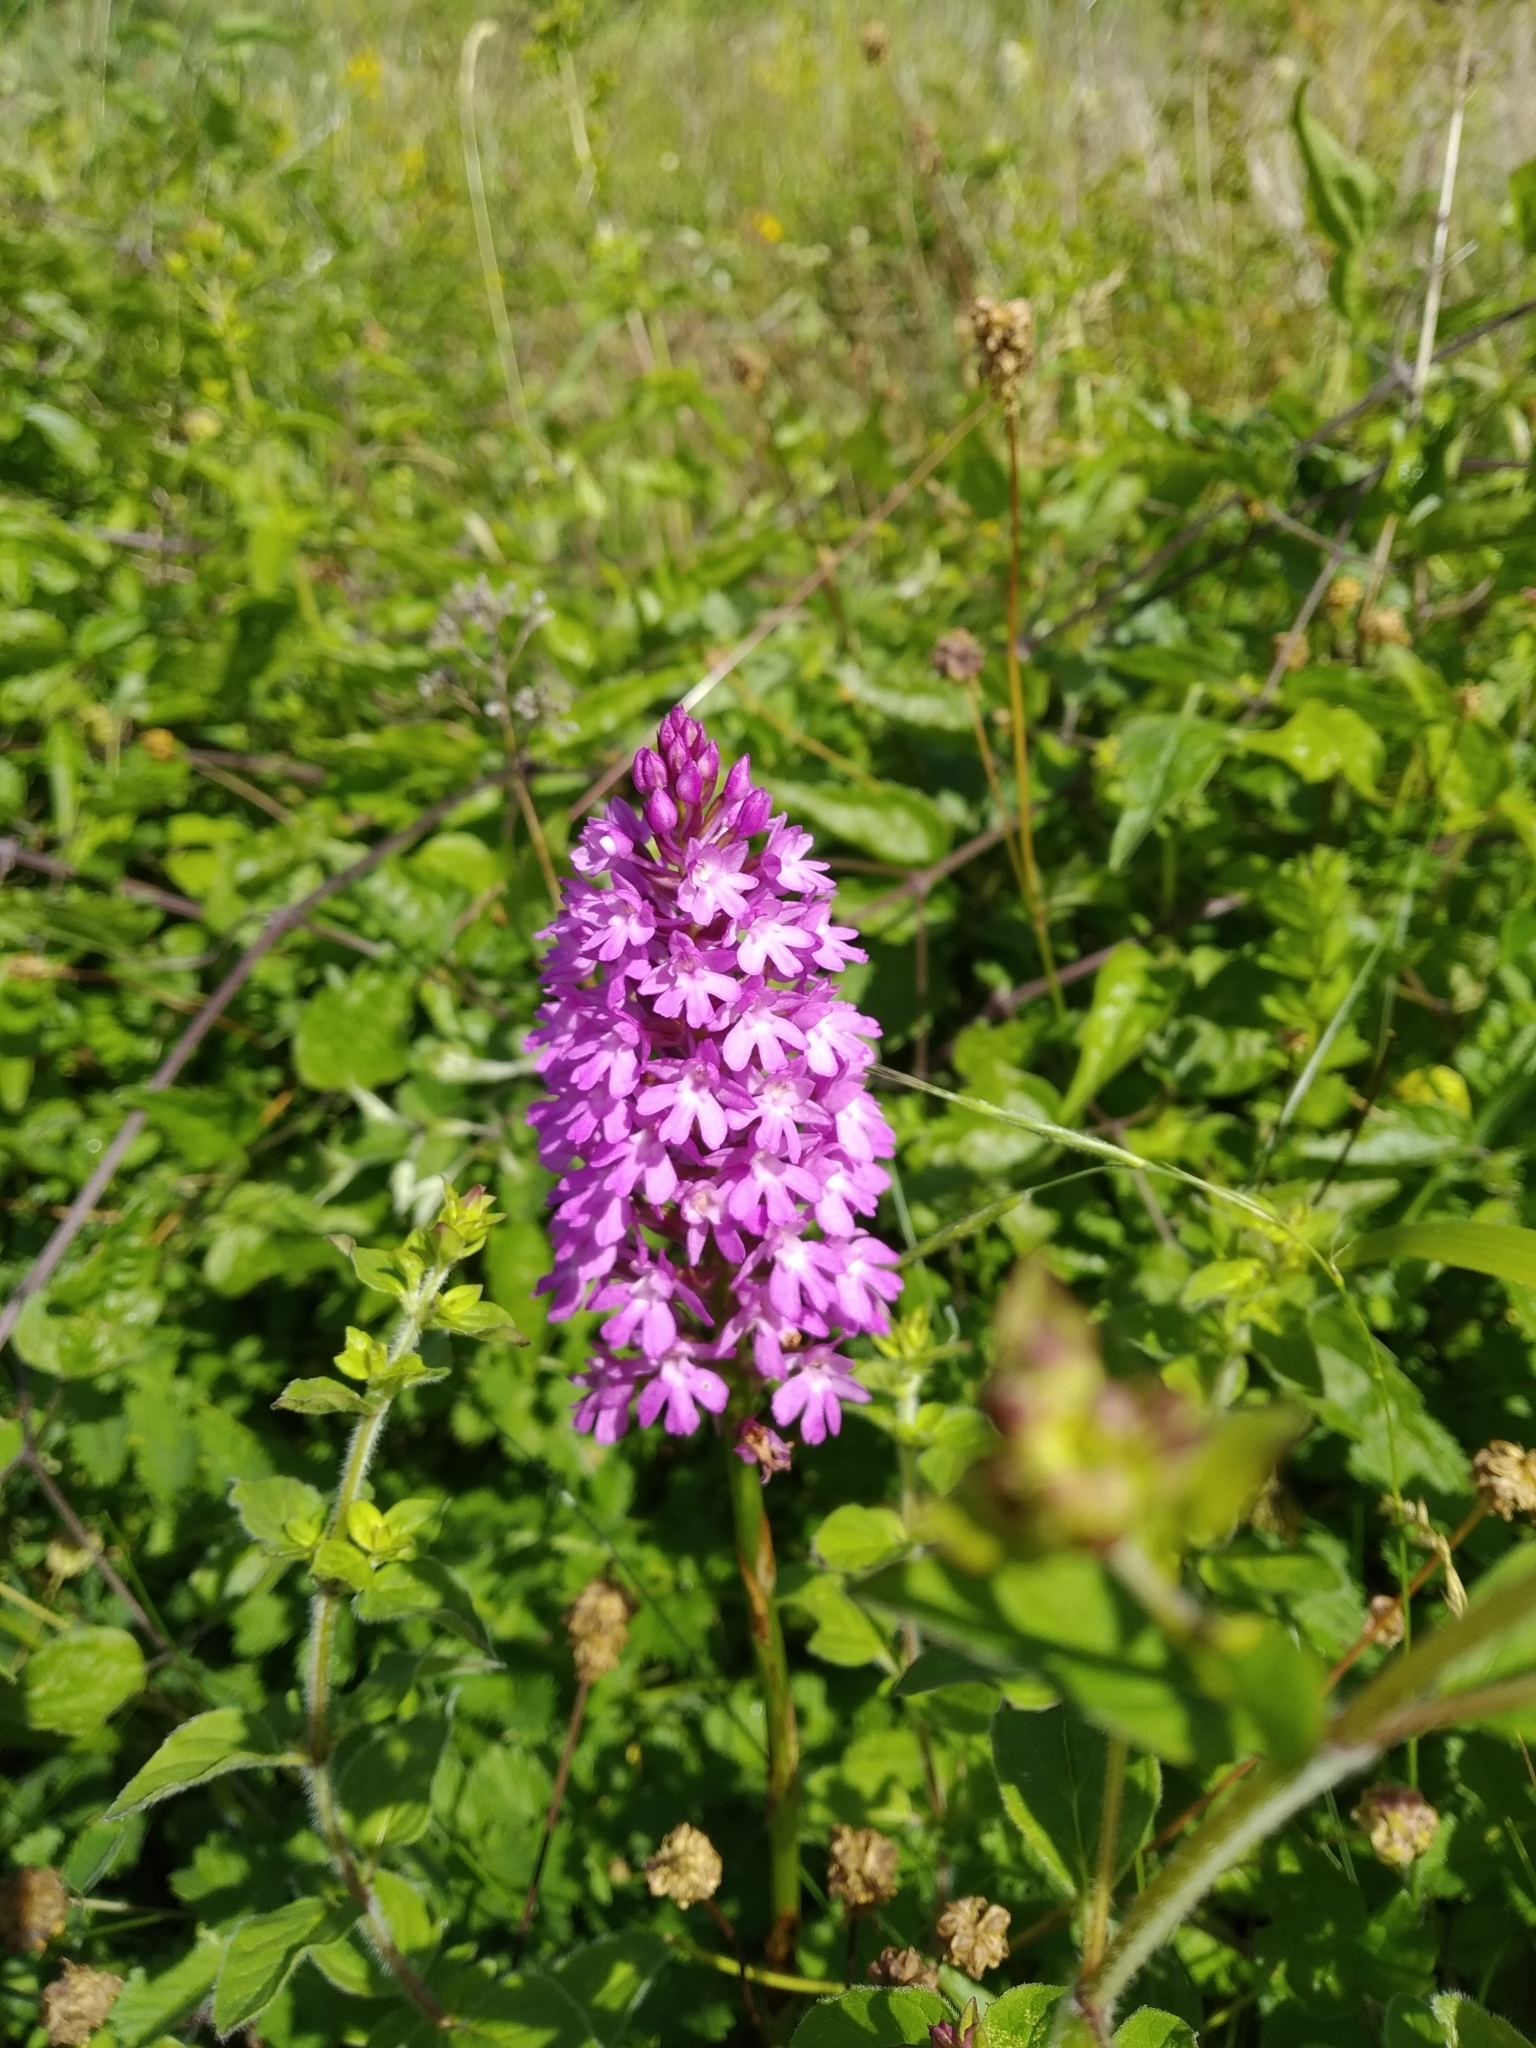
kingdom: Plantae
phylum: Tracheophyta
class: Liliopsida
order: Asparagales
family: Orchidaceae
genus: Anacamptis
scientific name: Anacamptis pyramidalis
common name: Pyramidal orchid
